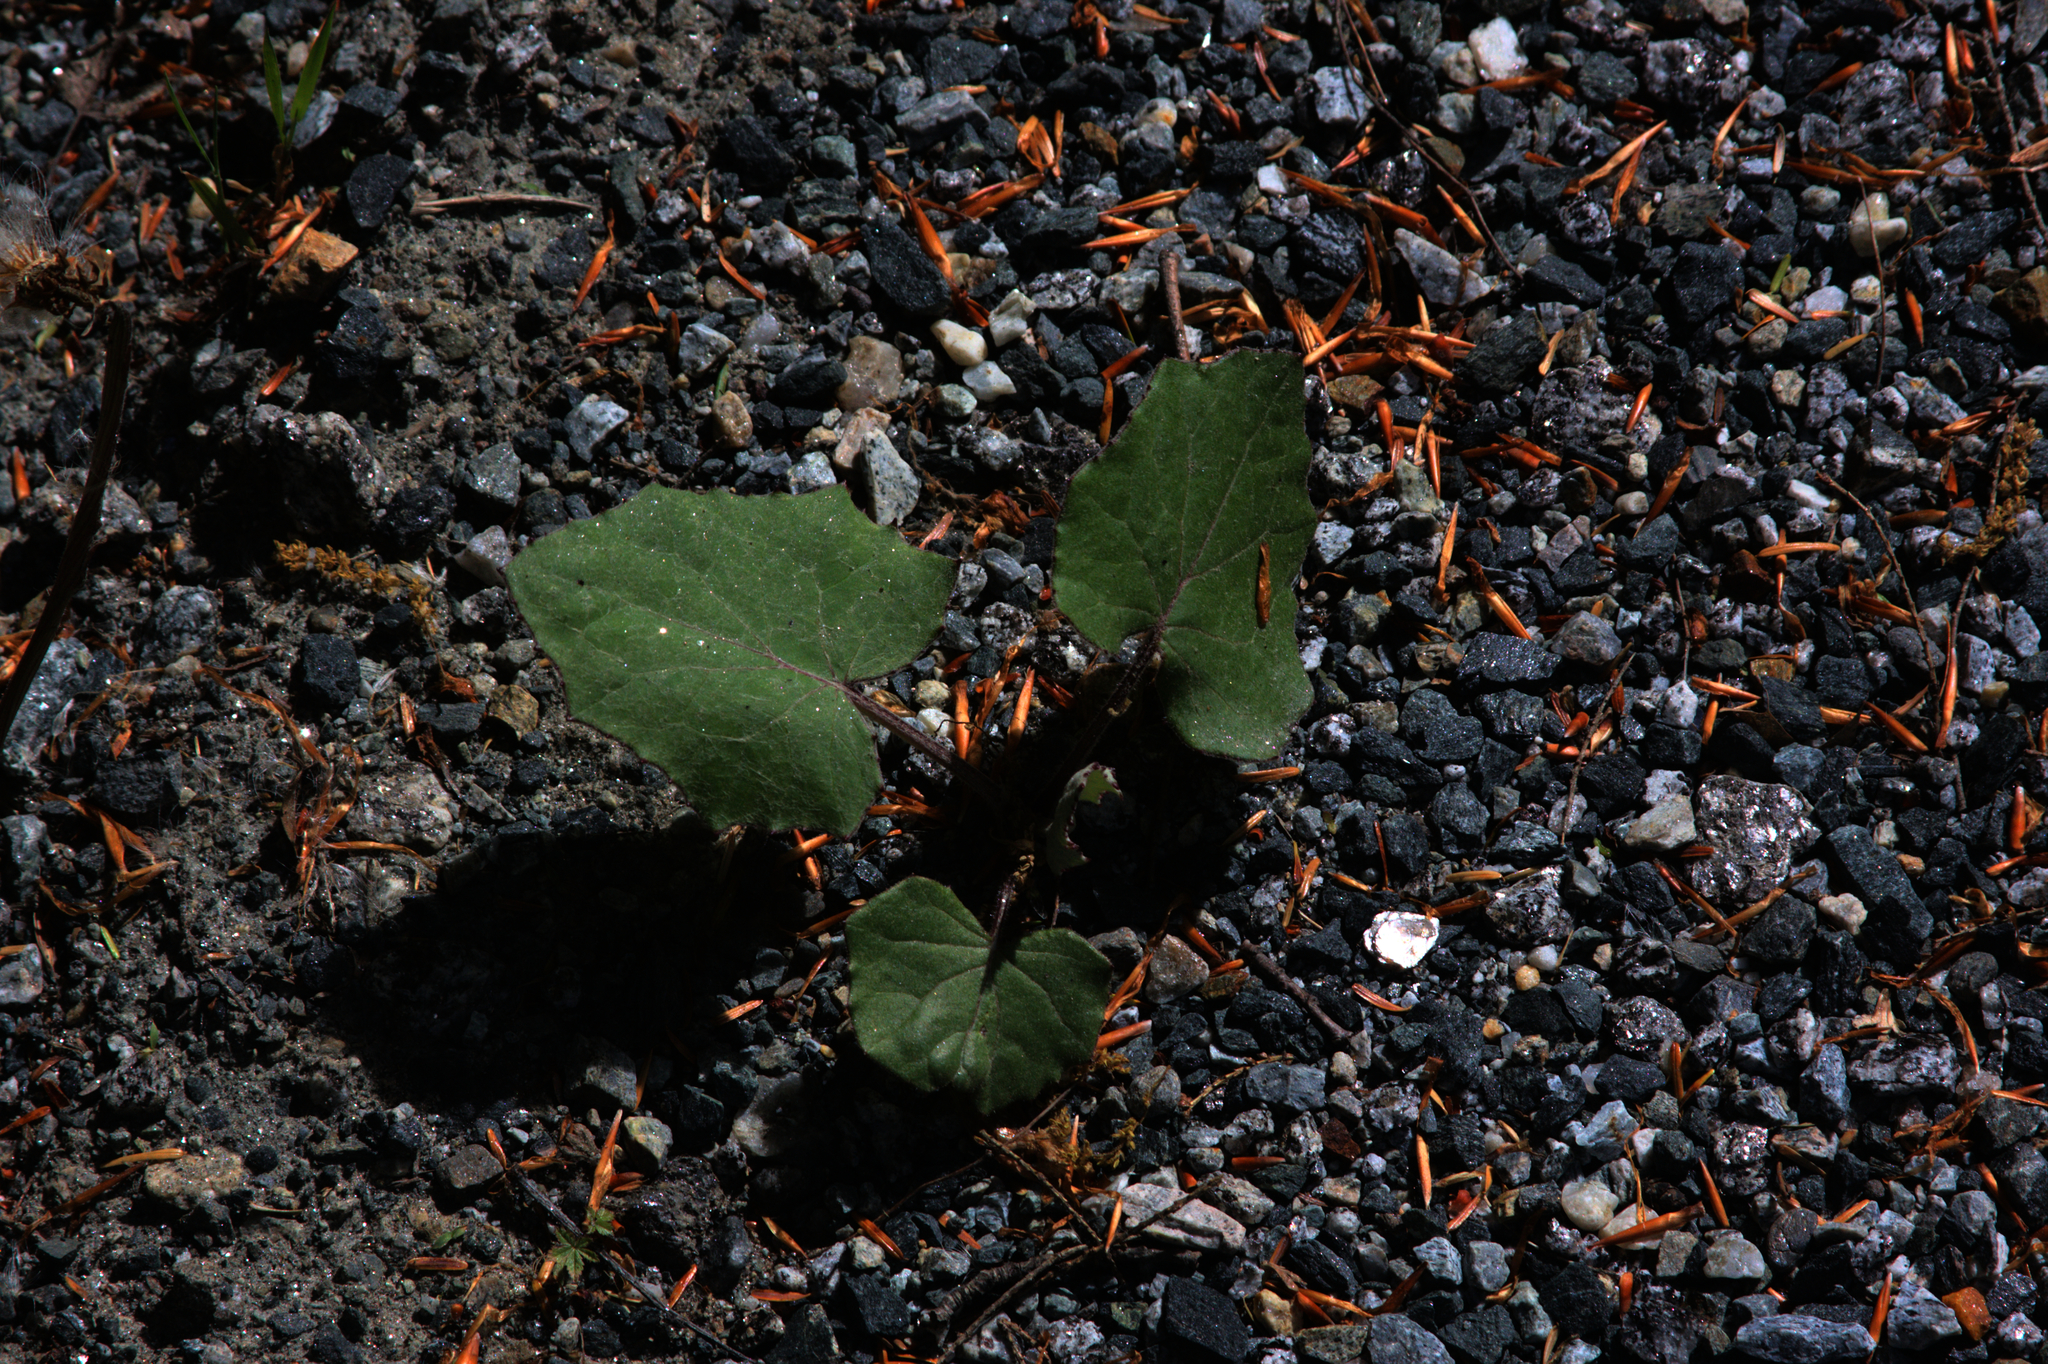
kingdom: Plantae
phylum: Tracheophyta
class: Magnoliopsida
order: Asterales
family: Asteraceae
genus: Tussilago
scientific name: Tussilago farfara
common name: Coltsfoot
